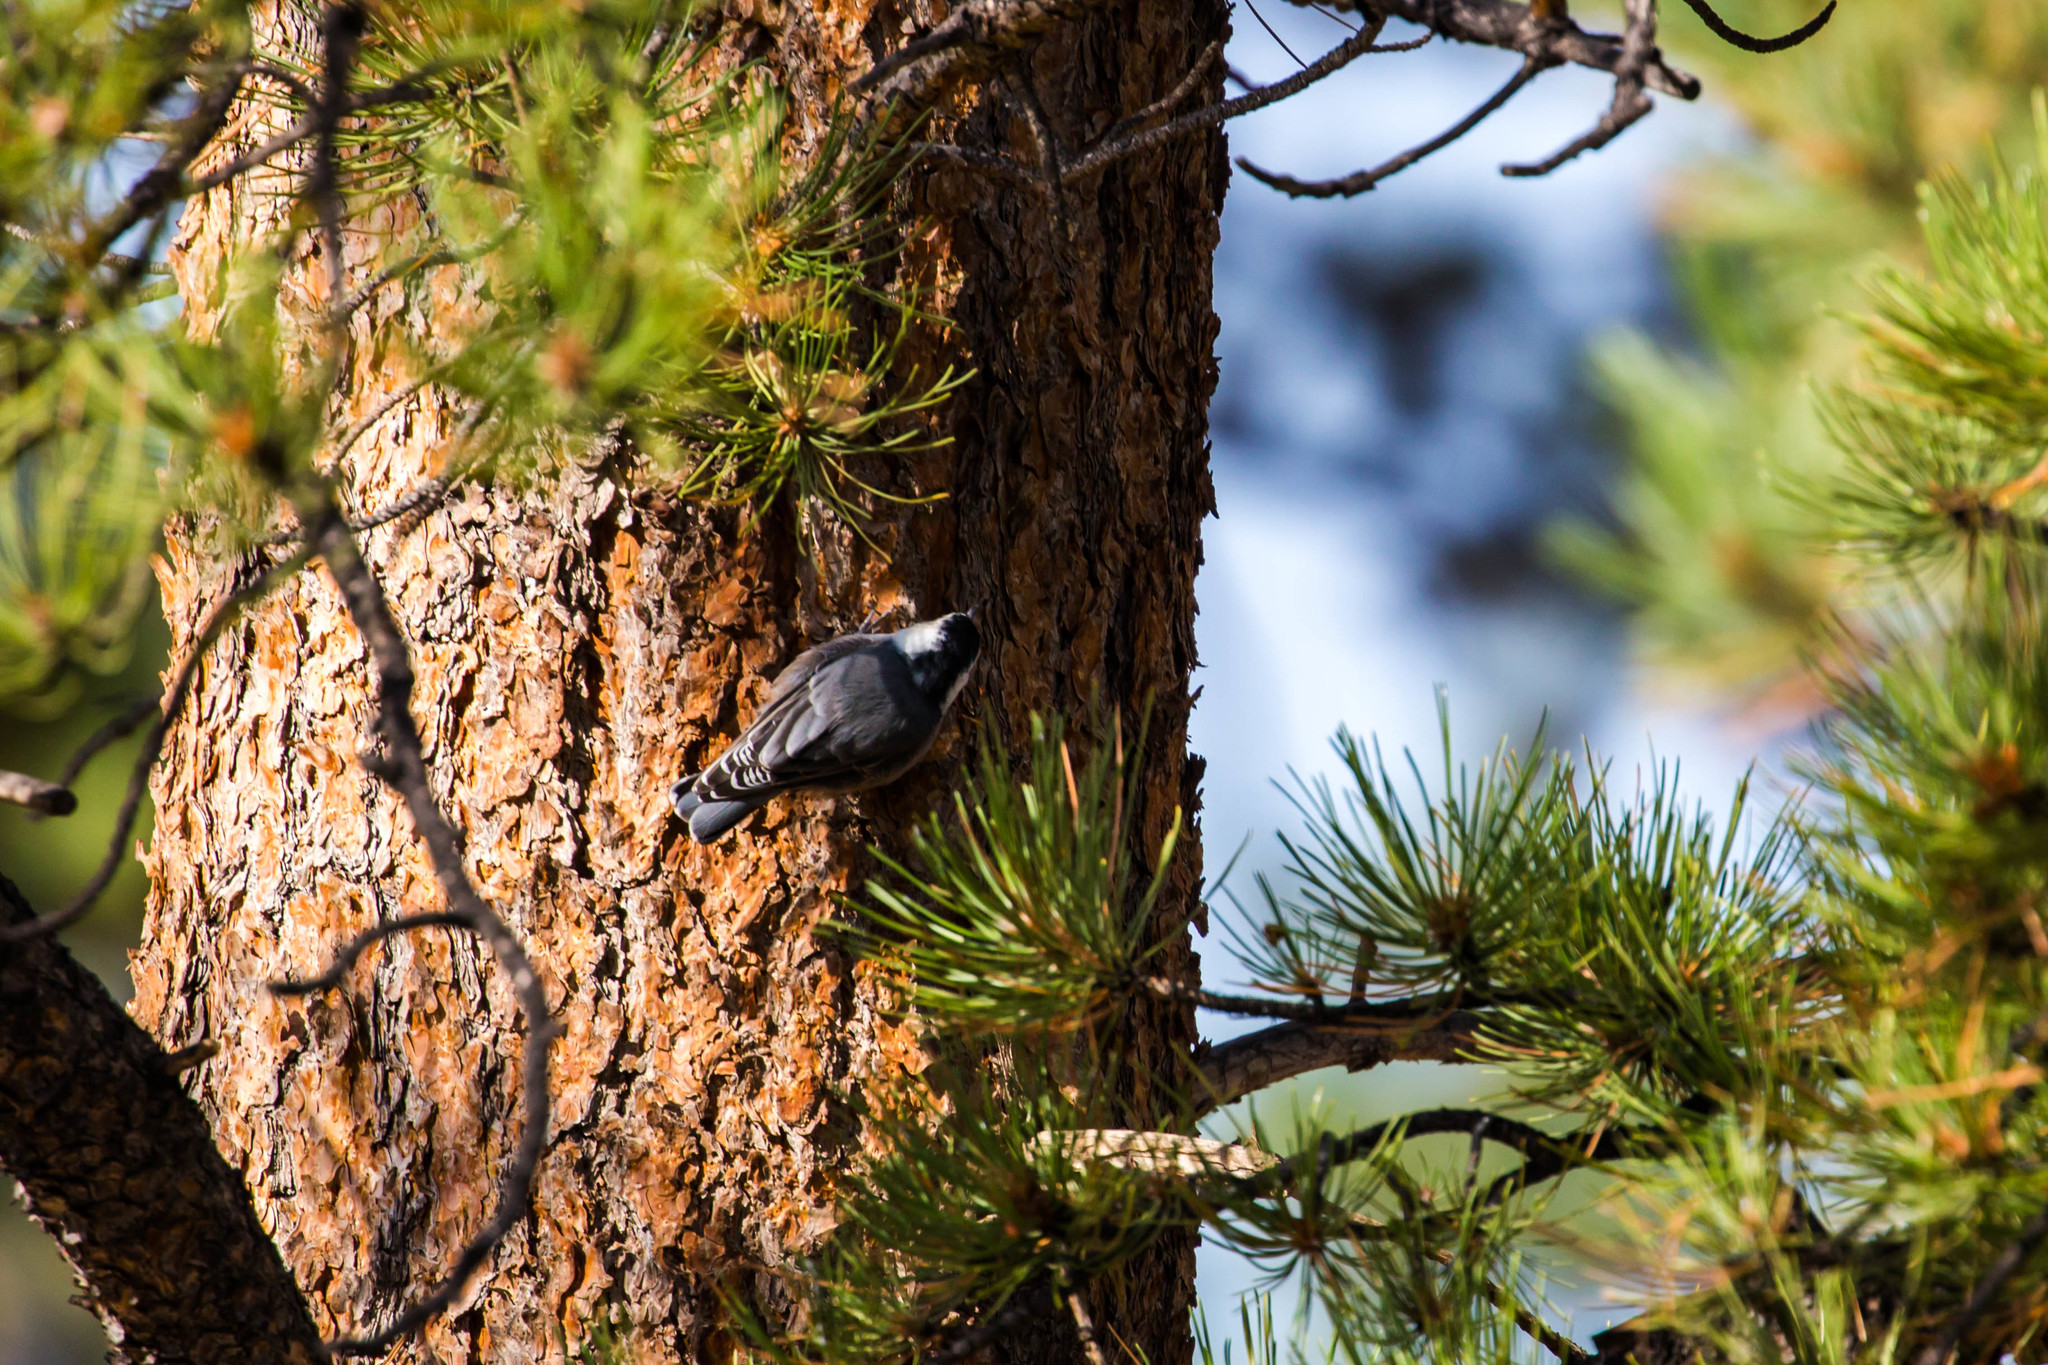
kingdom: Animalia
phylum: Chordata
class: Aves
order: Passeriformes
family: Sittidae
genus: Sitta
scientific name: Sitta carolinensis
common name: White-breasted nuthatch
